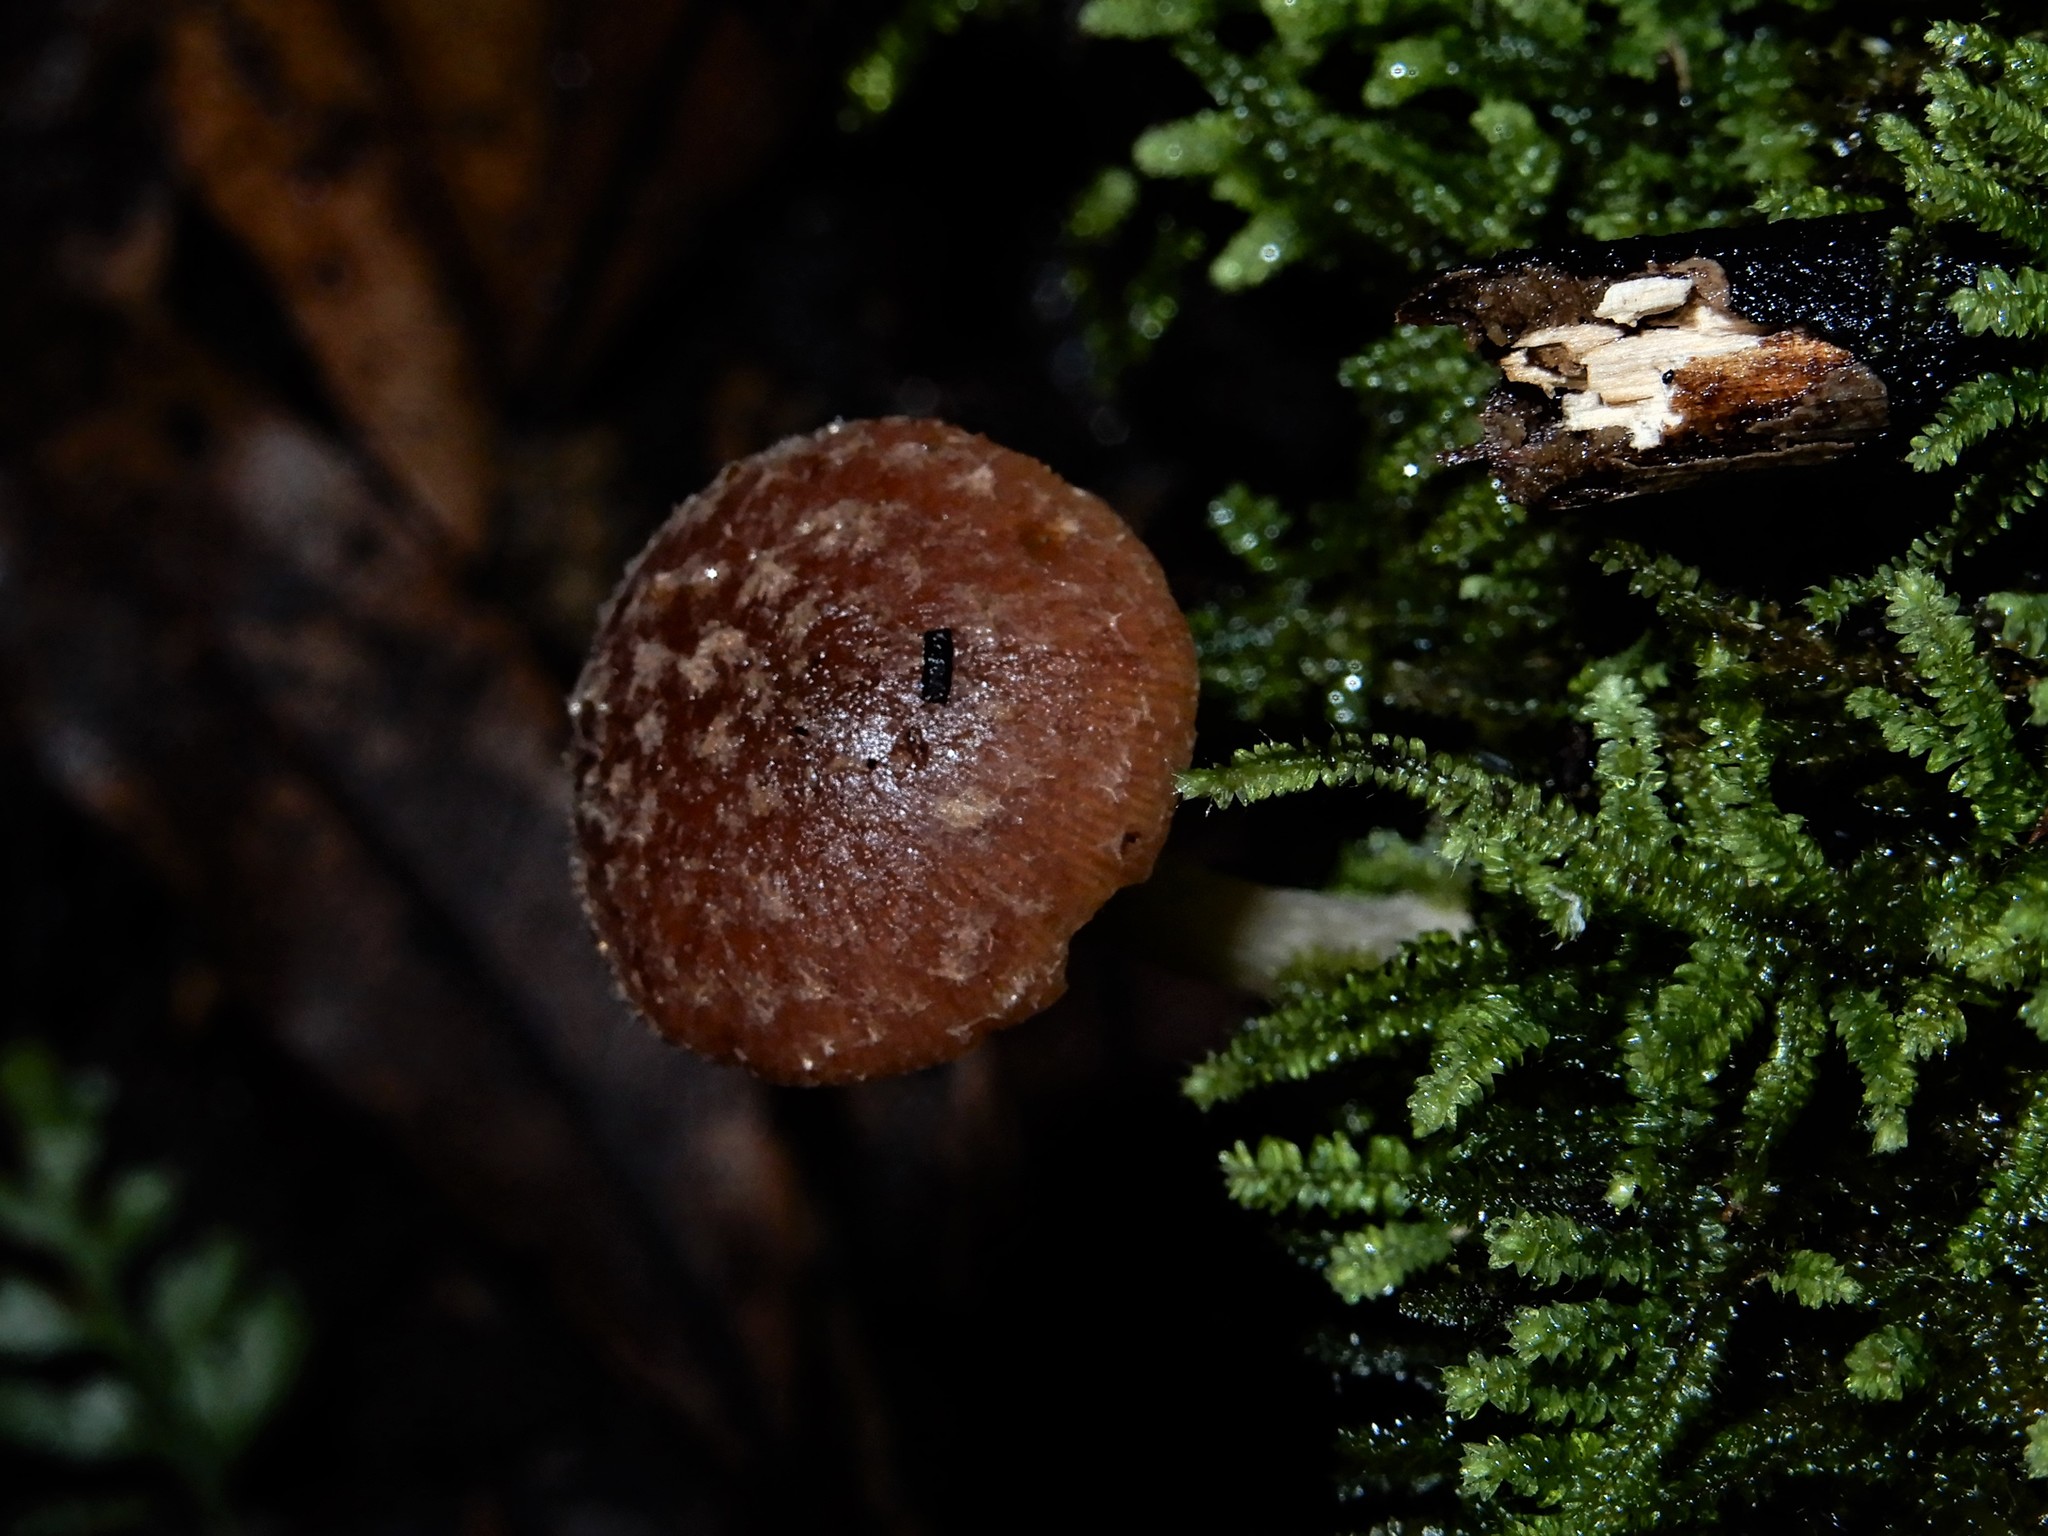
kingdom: Fungi
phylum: Basidiomycota
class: Agaricomycetes
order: Agaricales
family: Psathyrellaceae
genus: Candolleomyces
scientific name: Candolleomyces
